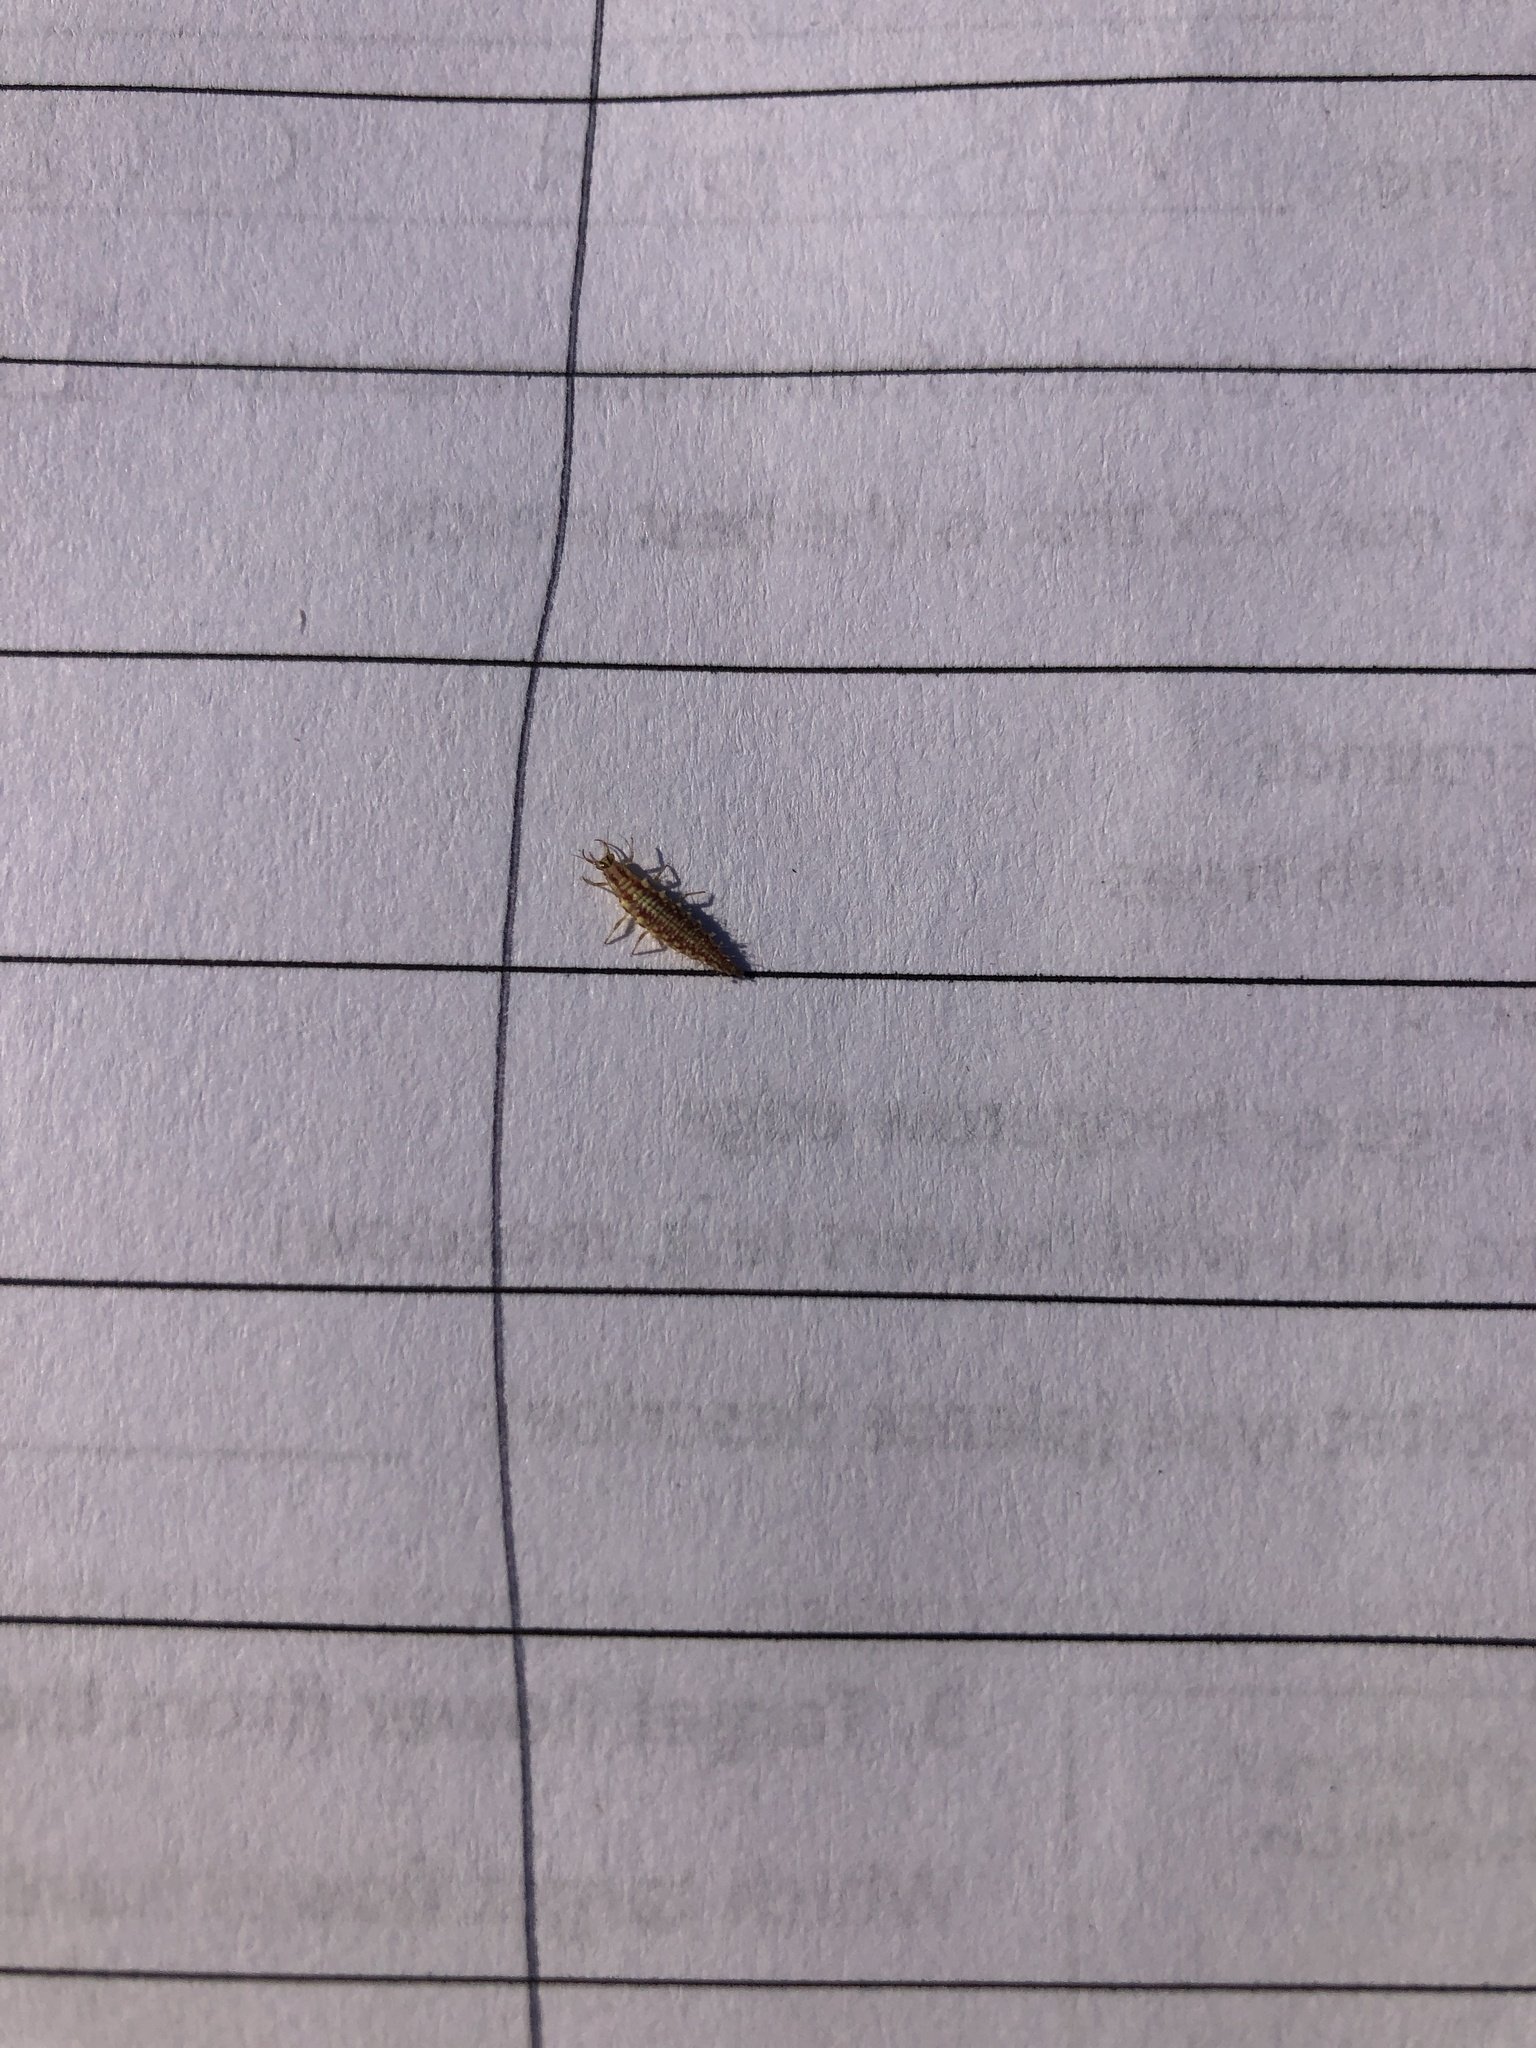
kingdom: Animalia
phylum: Arthropoda
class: Insecta
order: Neuroptera
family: Chrysopidae
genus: Chrysoperla
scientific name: Chrysoperla
